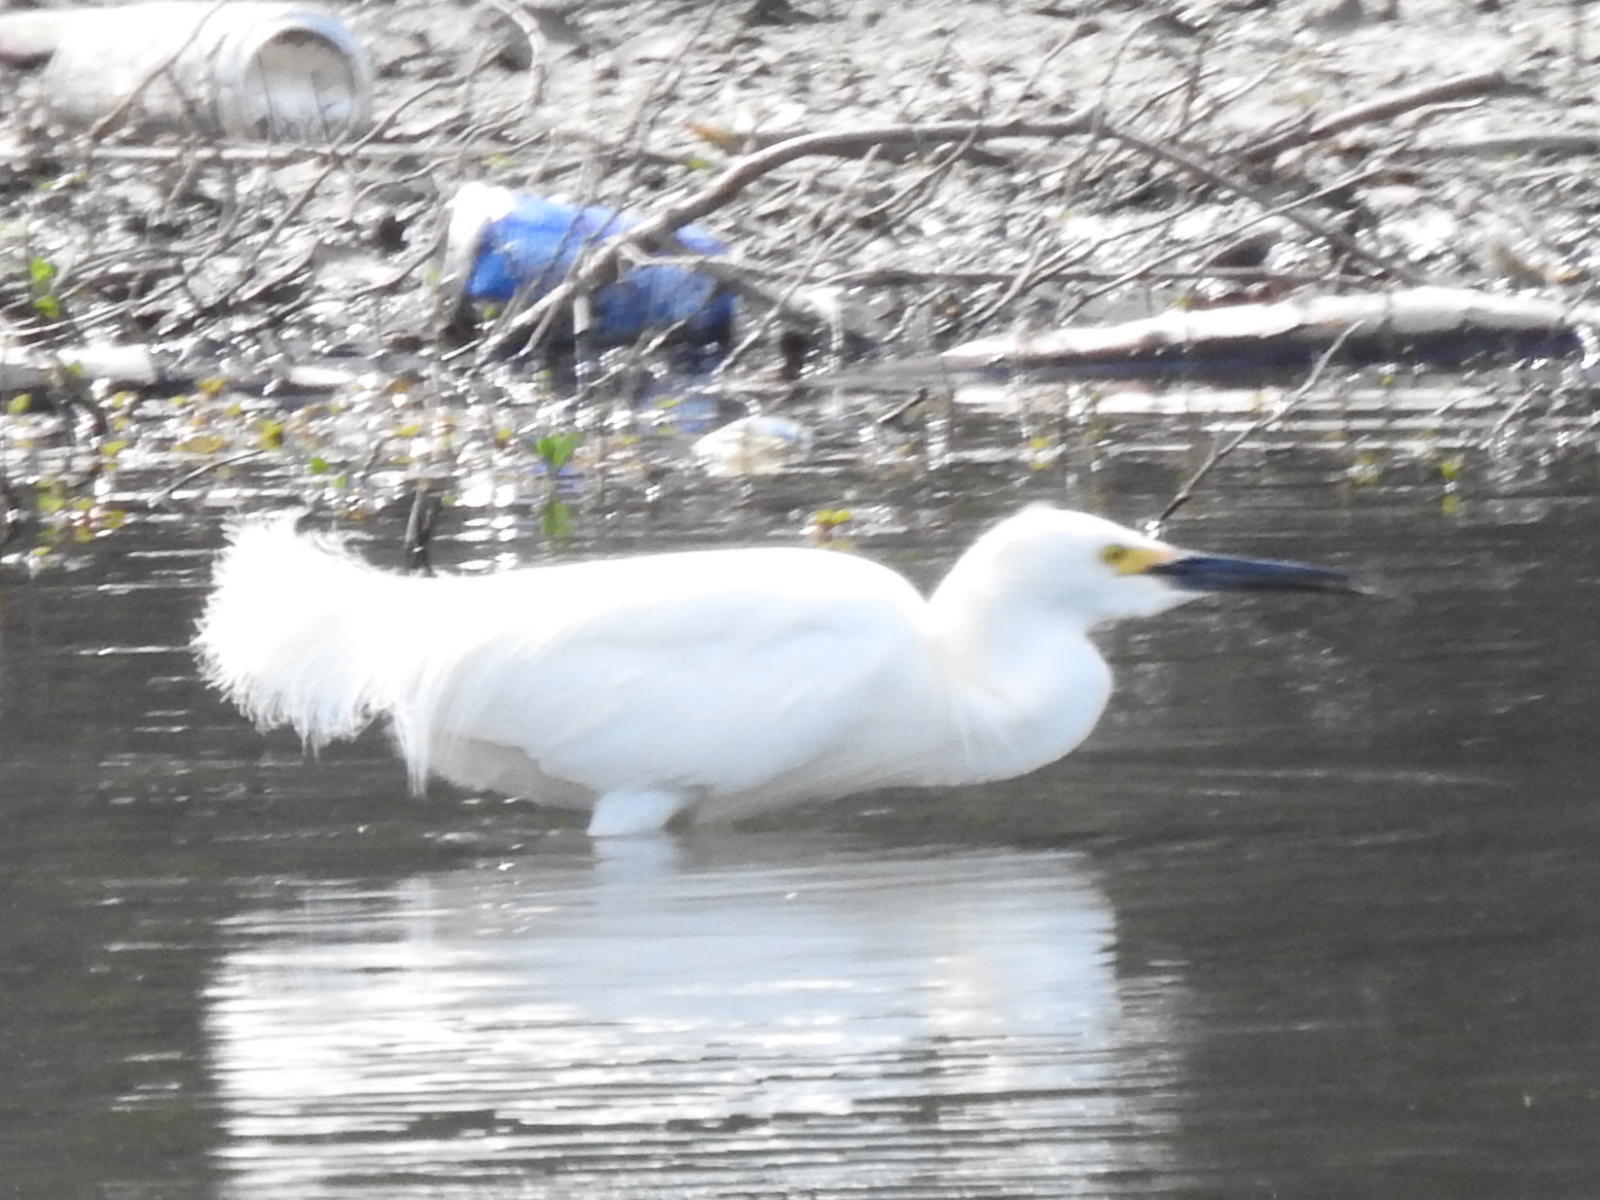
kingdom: Animalia
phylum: Chordata
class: Aves
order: Pelecaniformes
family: Ardeidae
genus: Egretta
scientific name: Egretta thula
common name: Snowy egret
